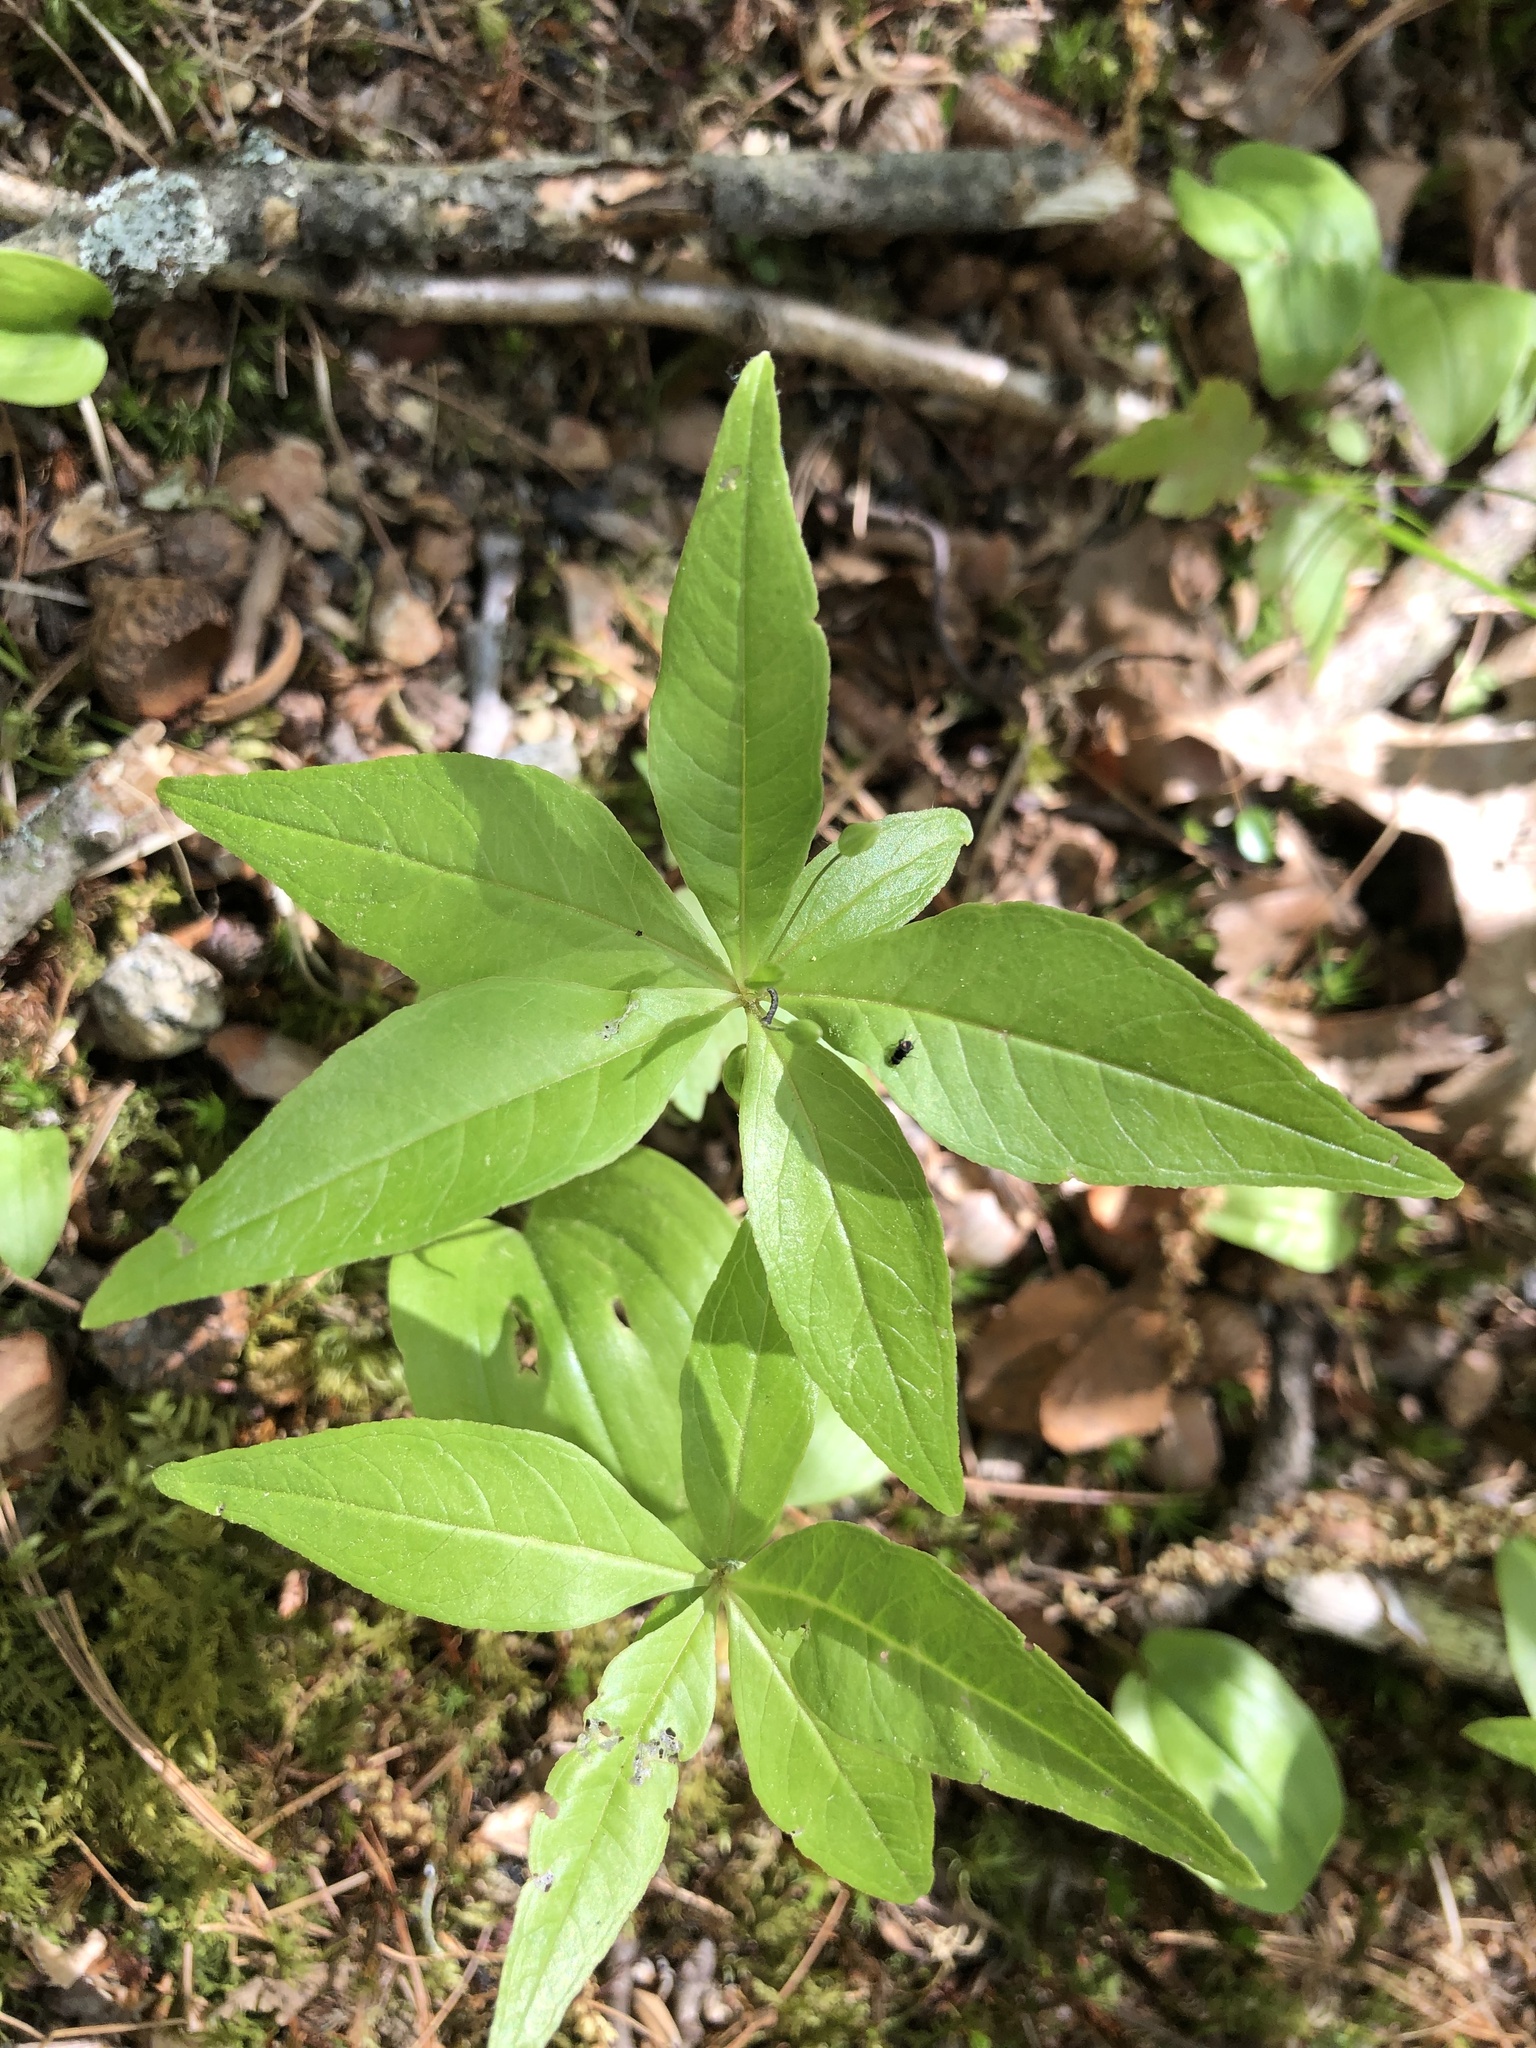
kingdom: Plantae
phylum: Tracheophyta
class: Magnoliopsida
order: Ericales
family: Primulaceae
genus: Lysimachia
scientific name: Lysimachia borealis
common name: American starflower
